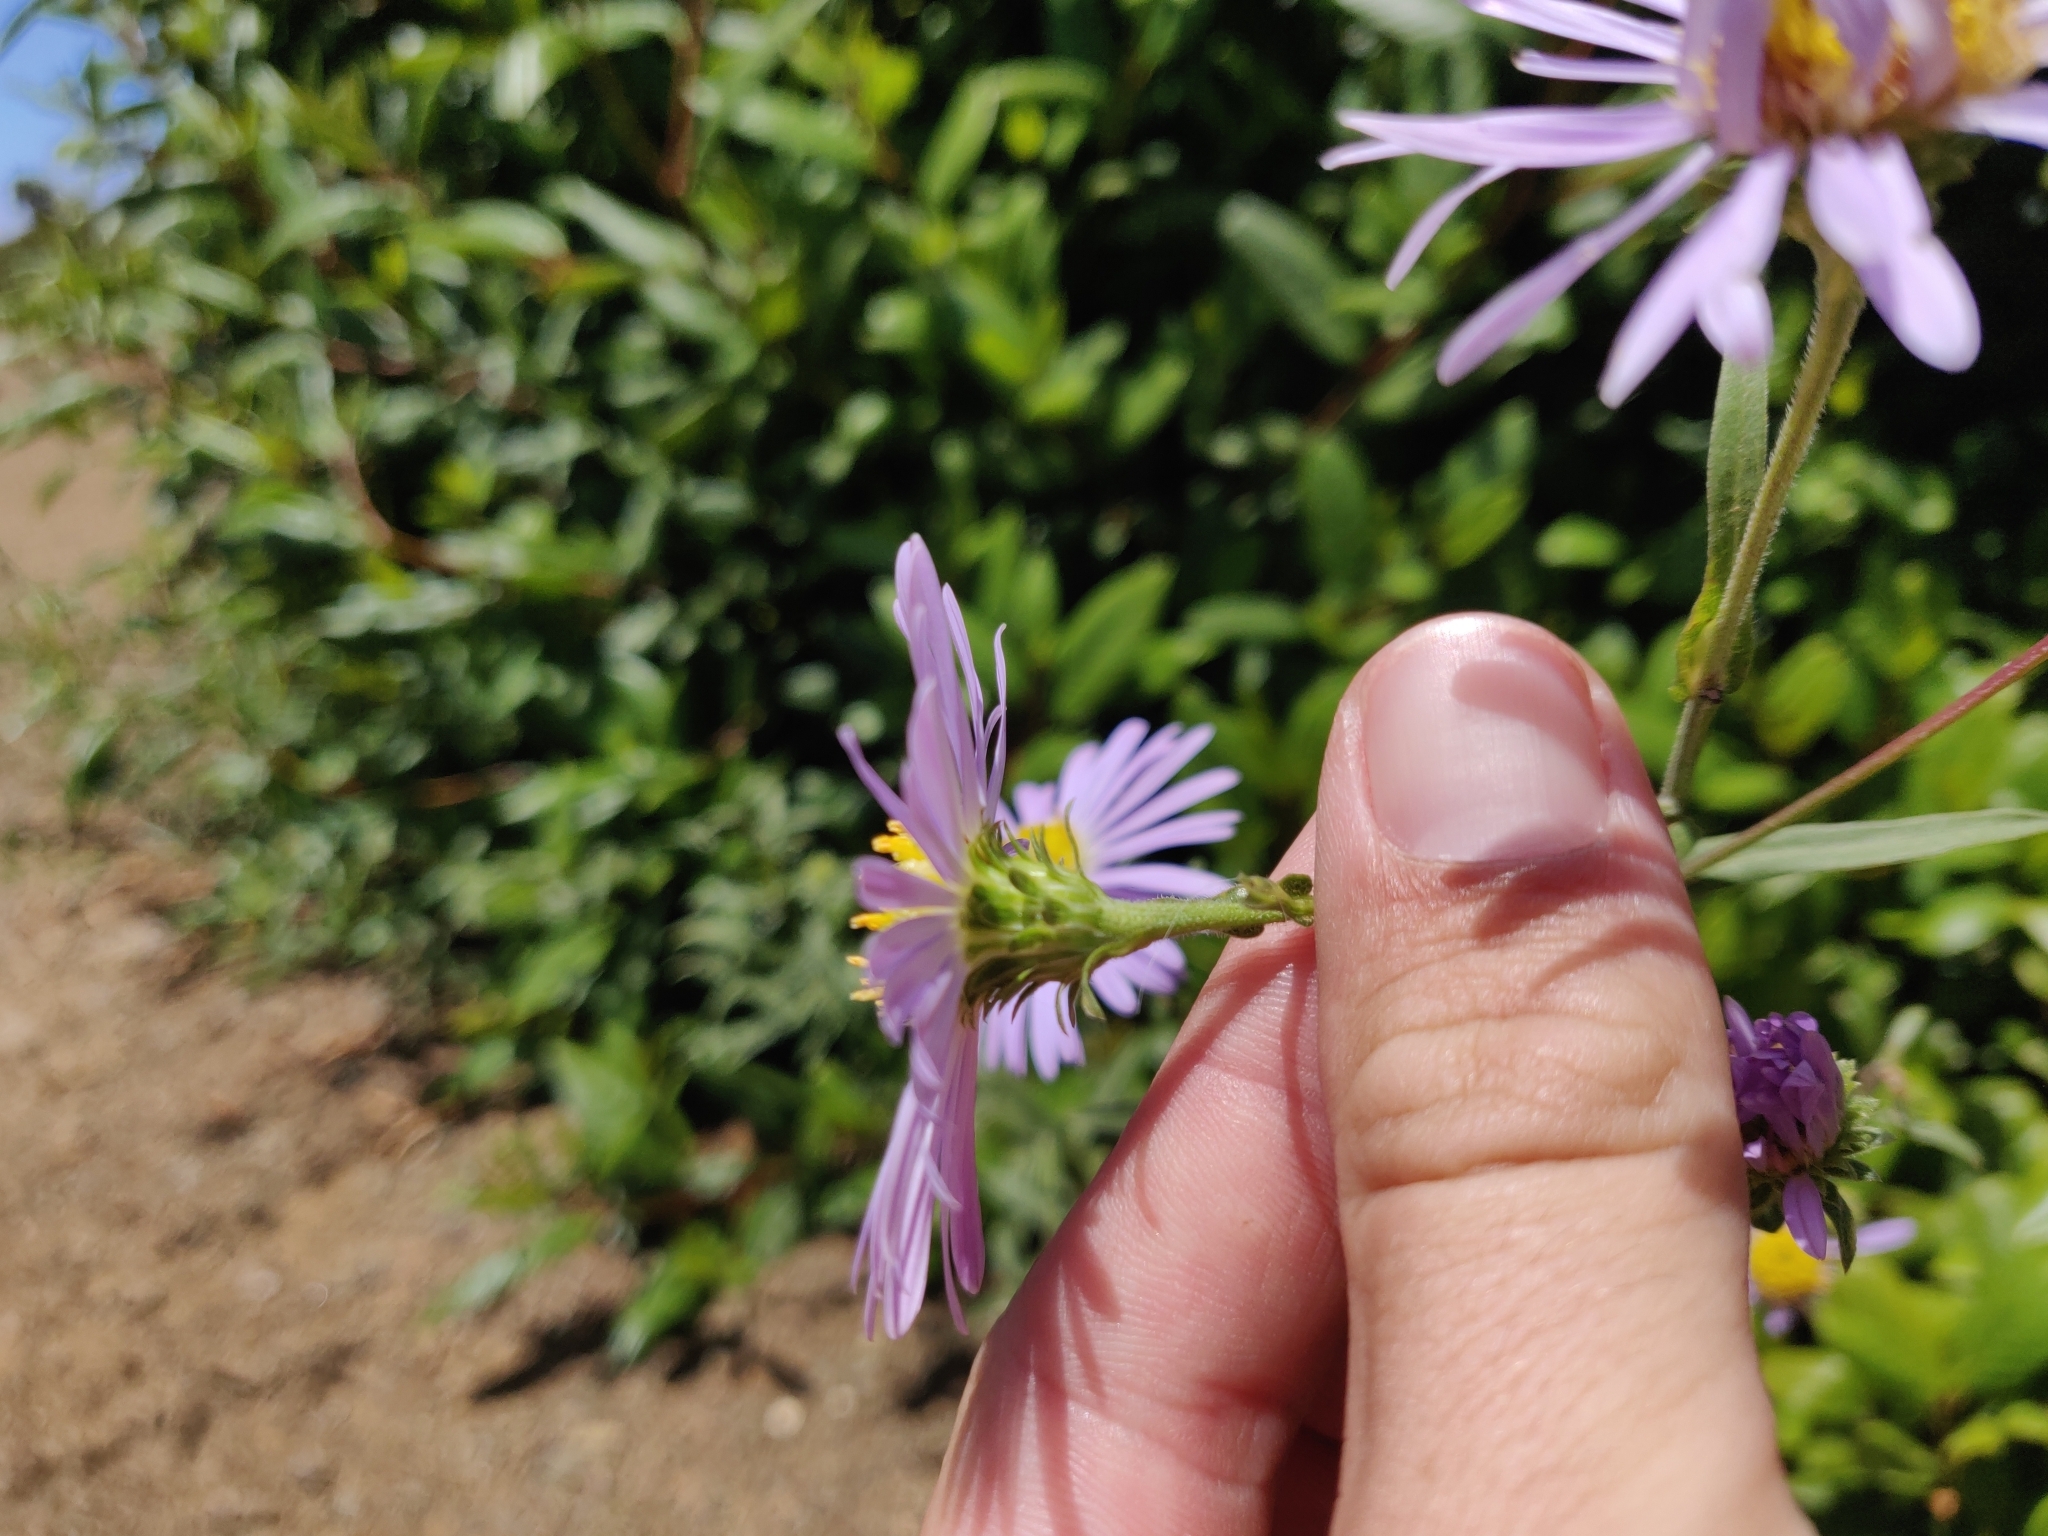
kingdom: Plantae
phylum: Tracheophyta
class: Magnoliopsida
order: Asterales
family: Asteraceae
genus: Symphyotrichum
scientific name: Symphyotrichum chilense
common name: Pacific aster
